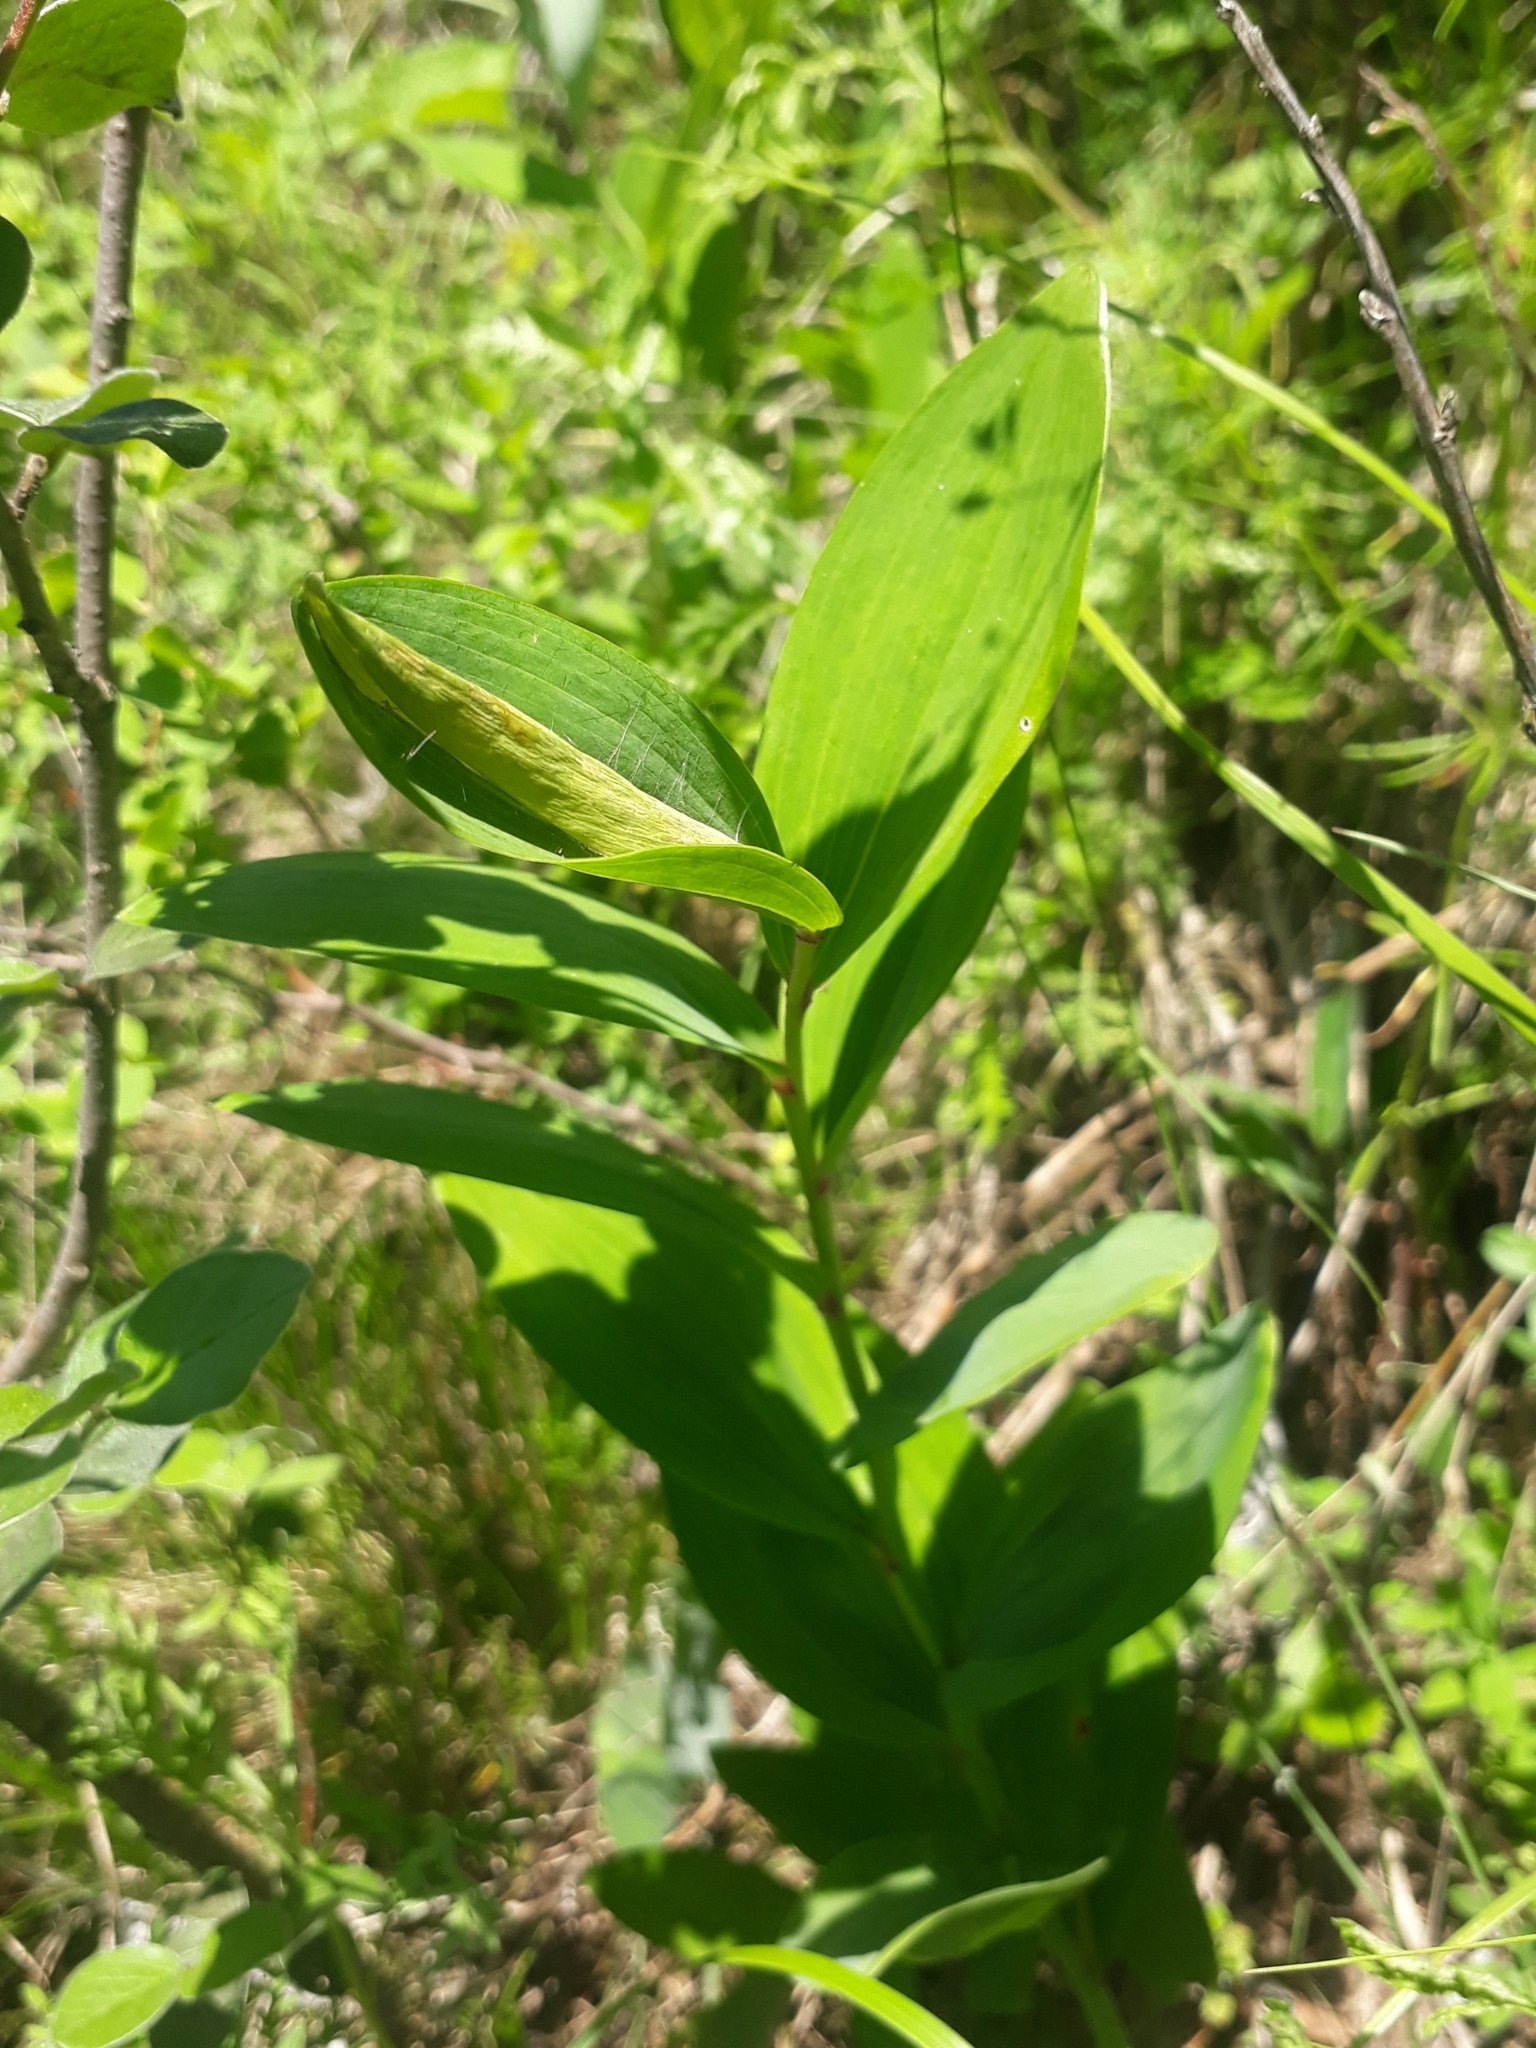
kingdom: Plantae
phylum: Tracheophyta
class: Liliopsida
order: Asparagales
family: Asparagaceae
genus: Polygonatum
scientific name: Polygonatum odoratum
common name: Angular solomon's-seal
